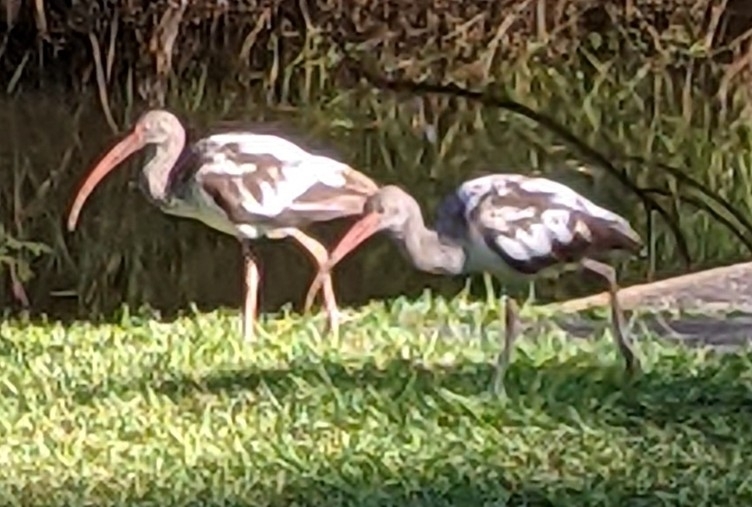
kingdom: Animalia
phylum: Chordata
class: Aves
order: Pelecaniformes
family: Threskiornithidae
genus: Eudocimus
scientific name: Eudocimus albus
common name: White ibis
